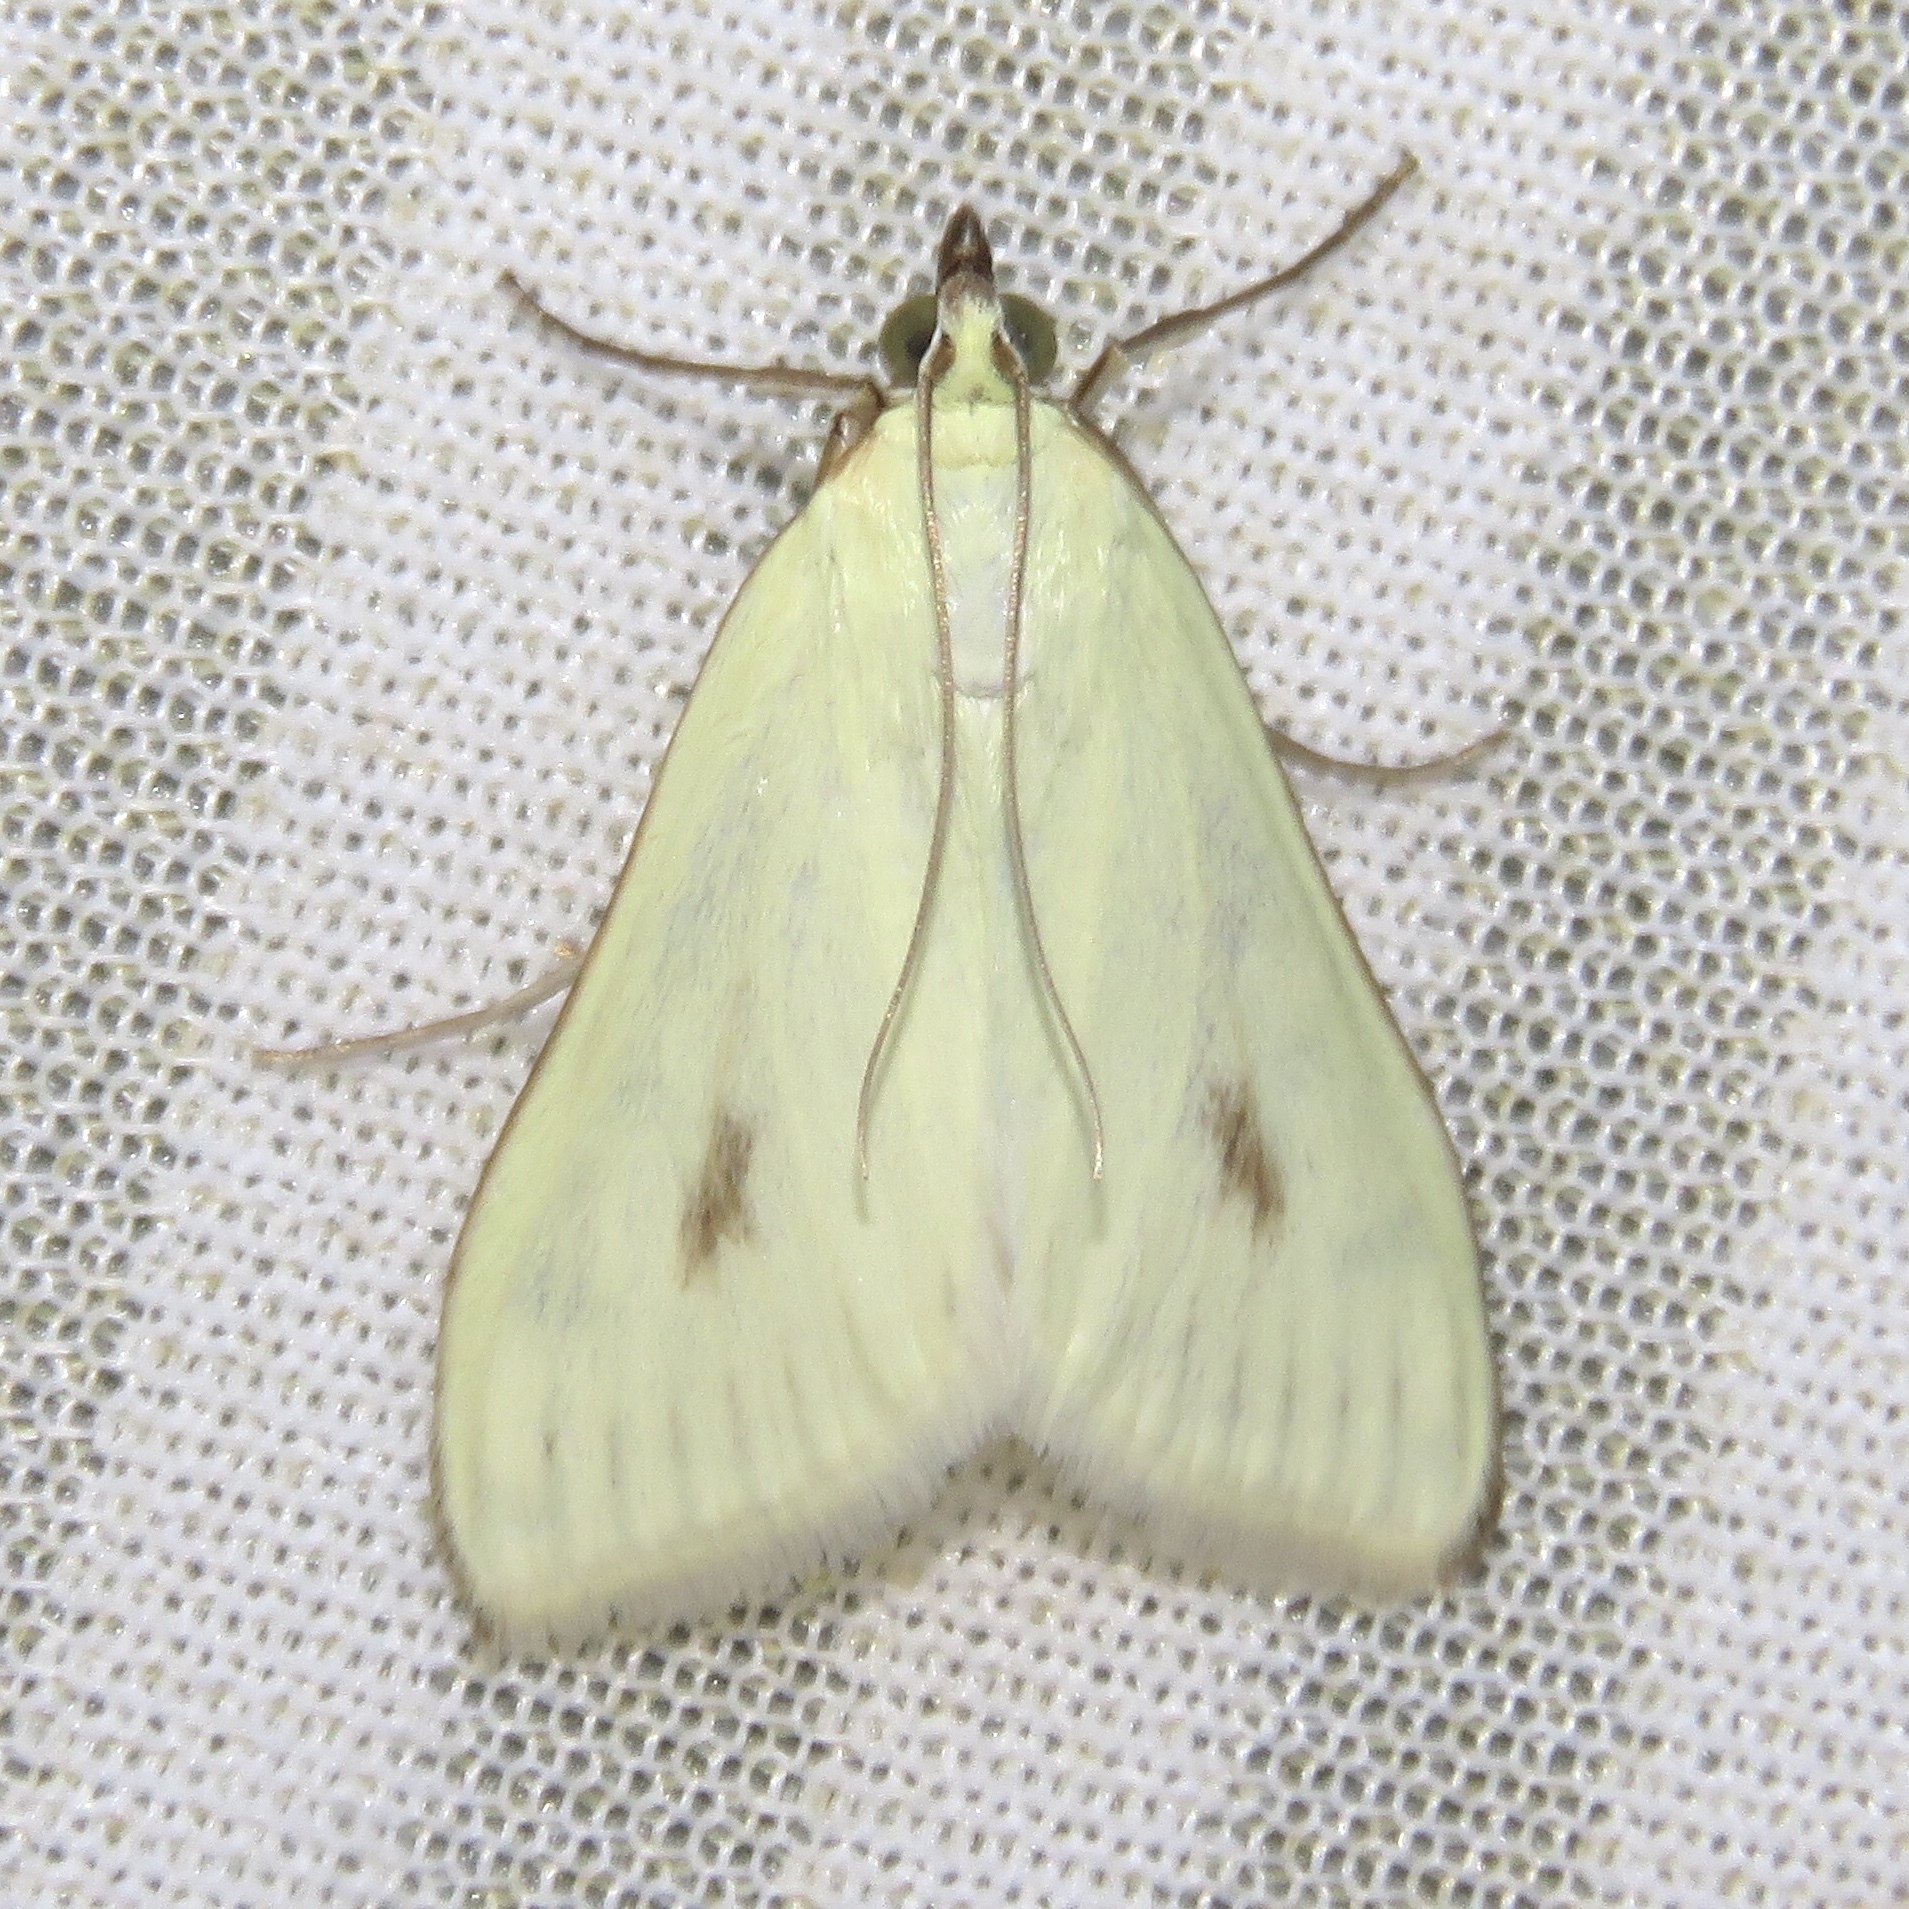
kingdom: Animalia
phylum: Arthropoda
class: Insecta
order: Lepidoptera
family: Crambidae
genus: Sitochroa
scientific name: Sitochroa palealis
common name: Greenish-yellow sitochroa moth
